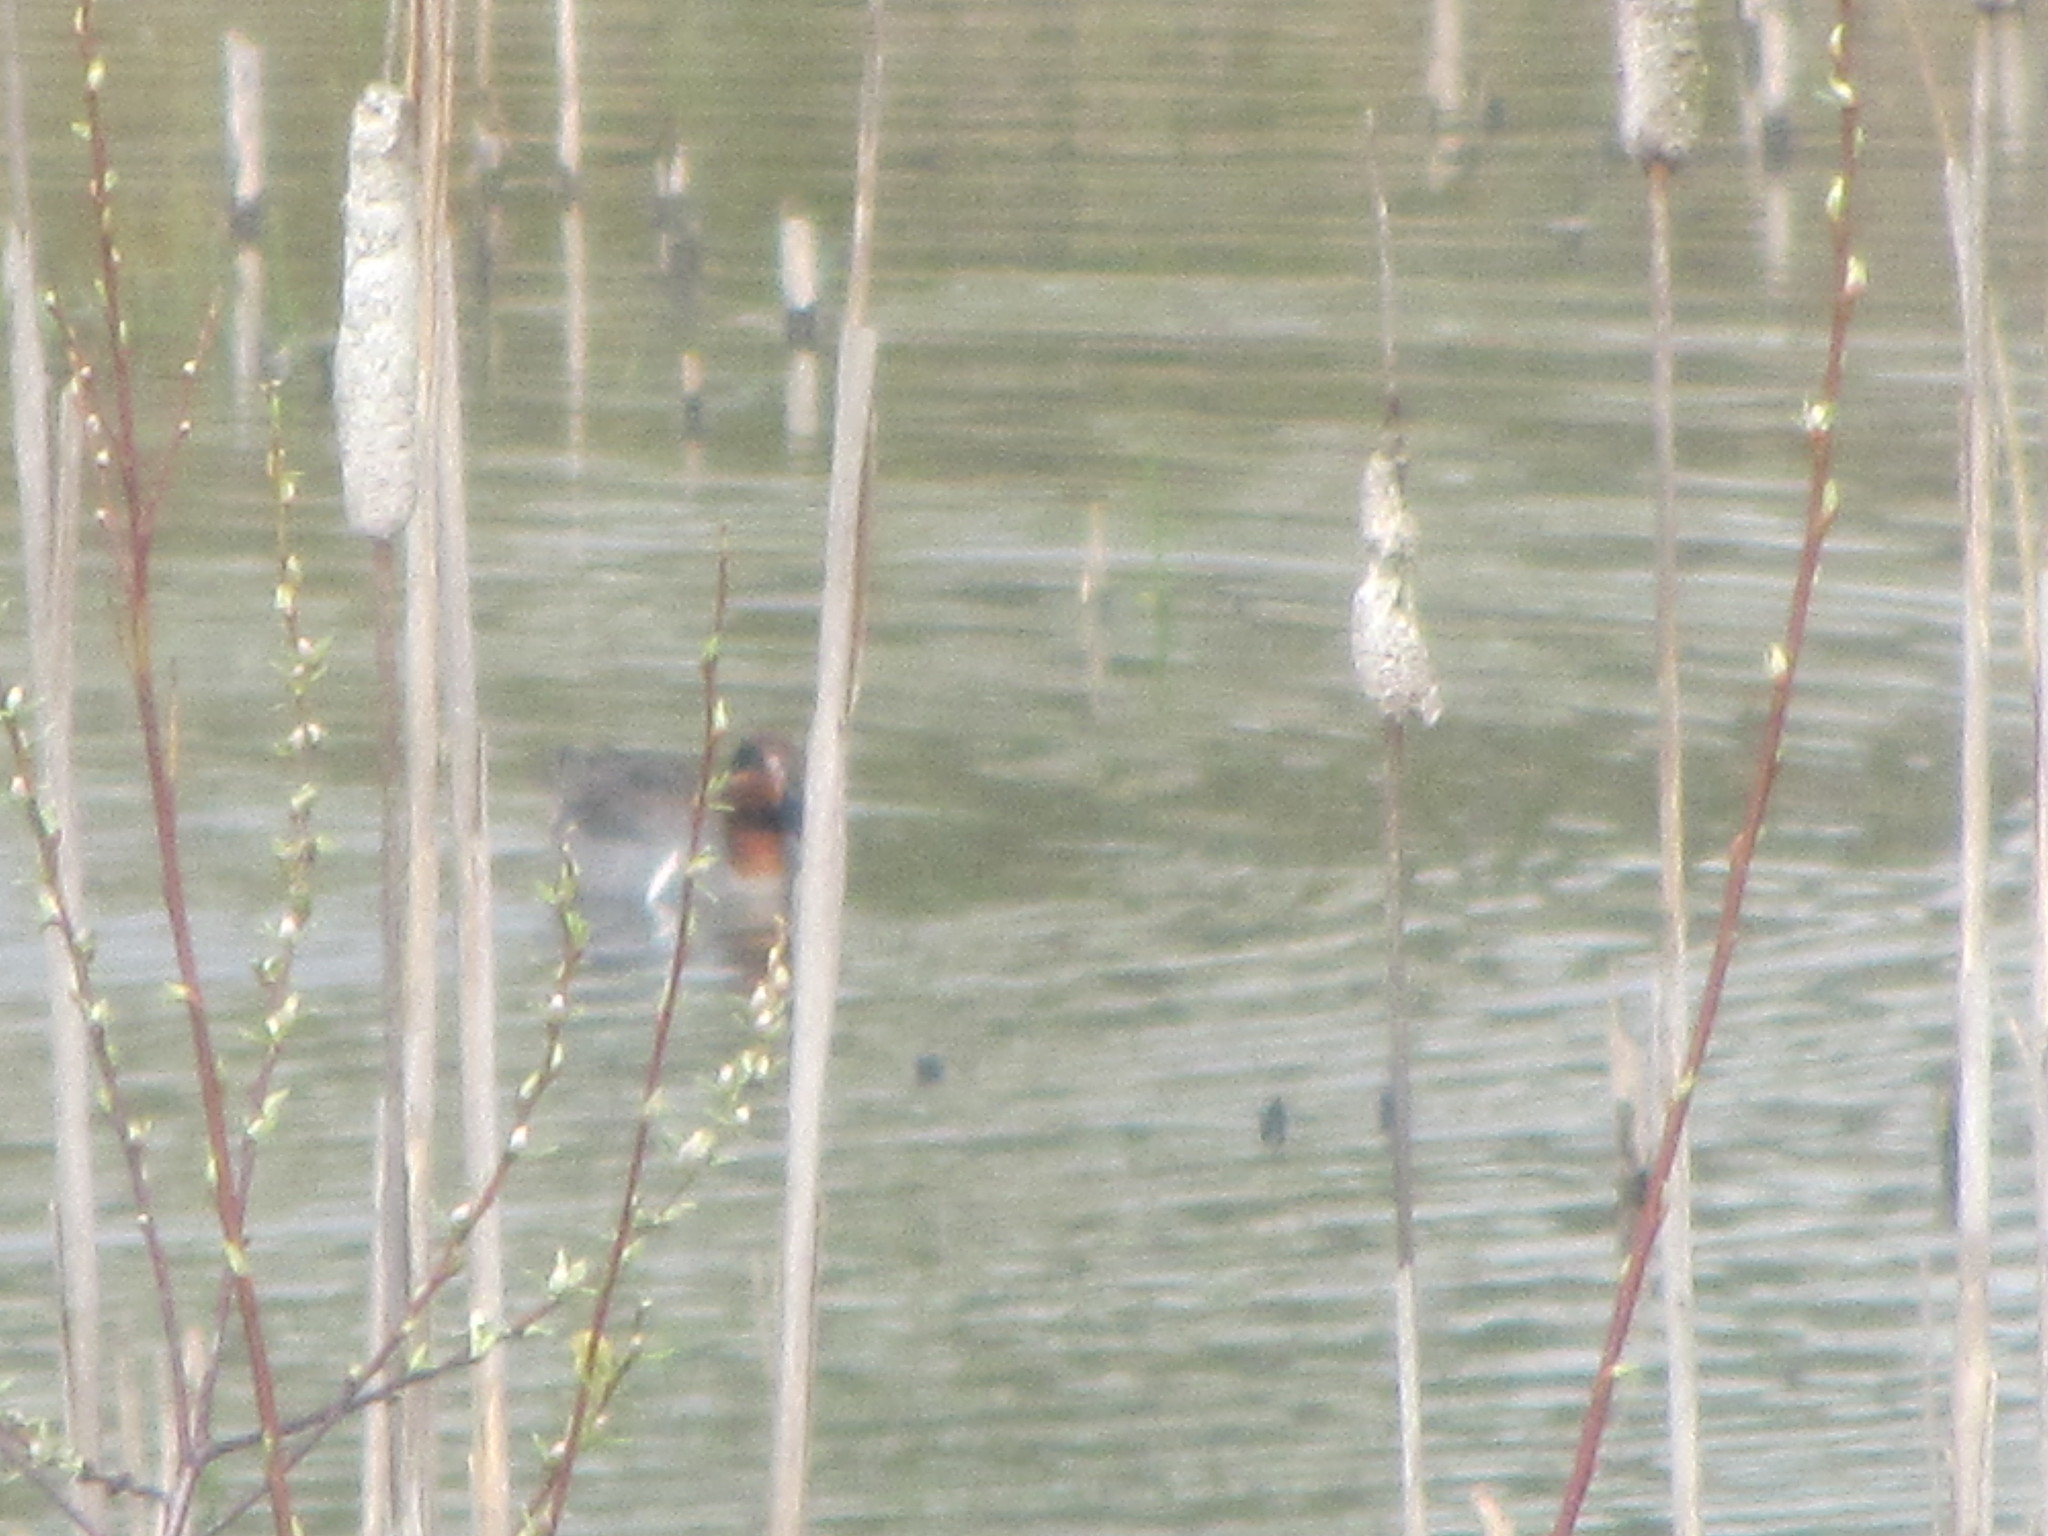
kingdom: Animalia
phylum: Chordata
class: Aves
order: Anseriformes
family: Anatidae
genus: Anas
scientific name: Anas crecca
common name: Eurasian teal
